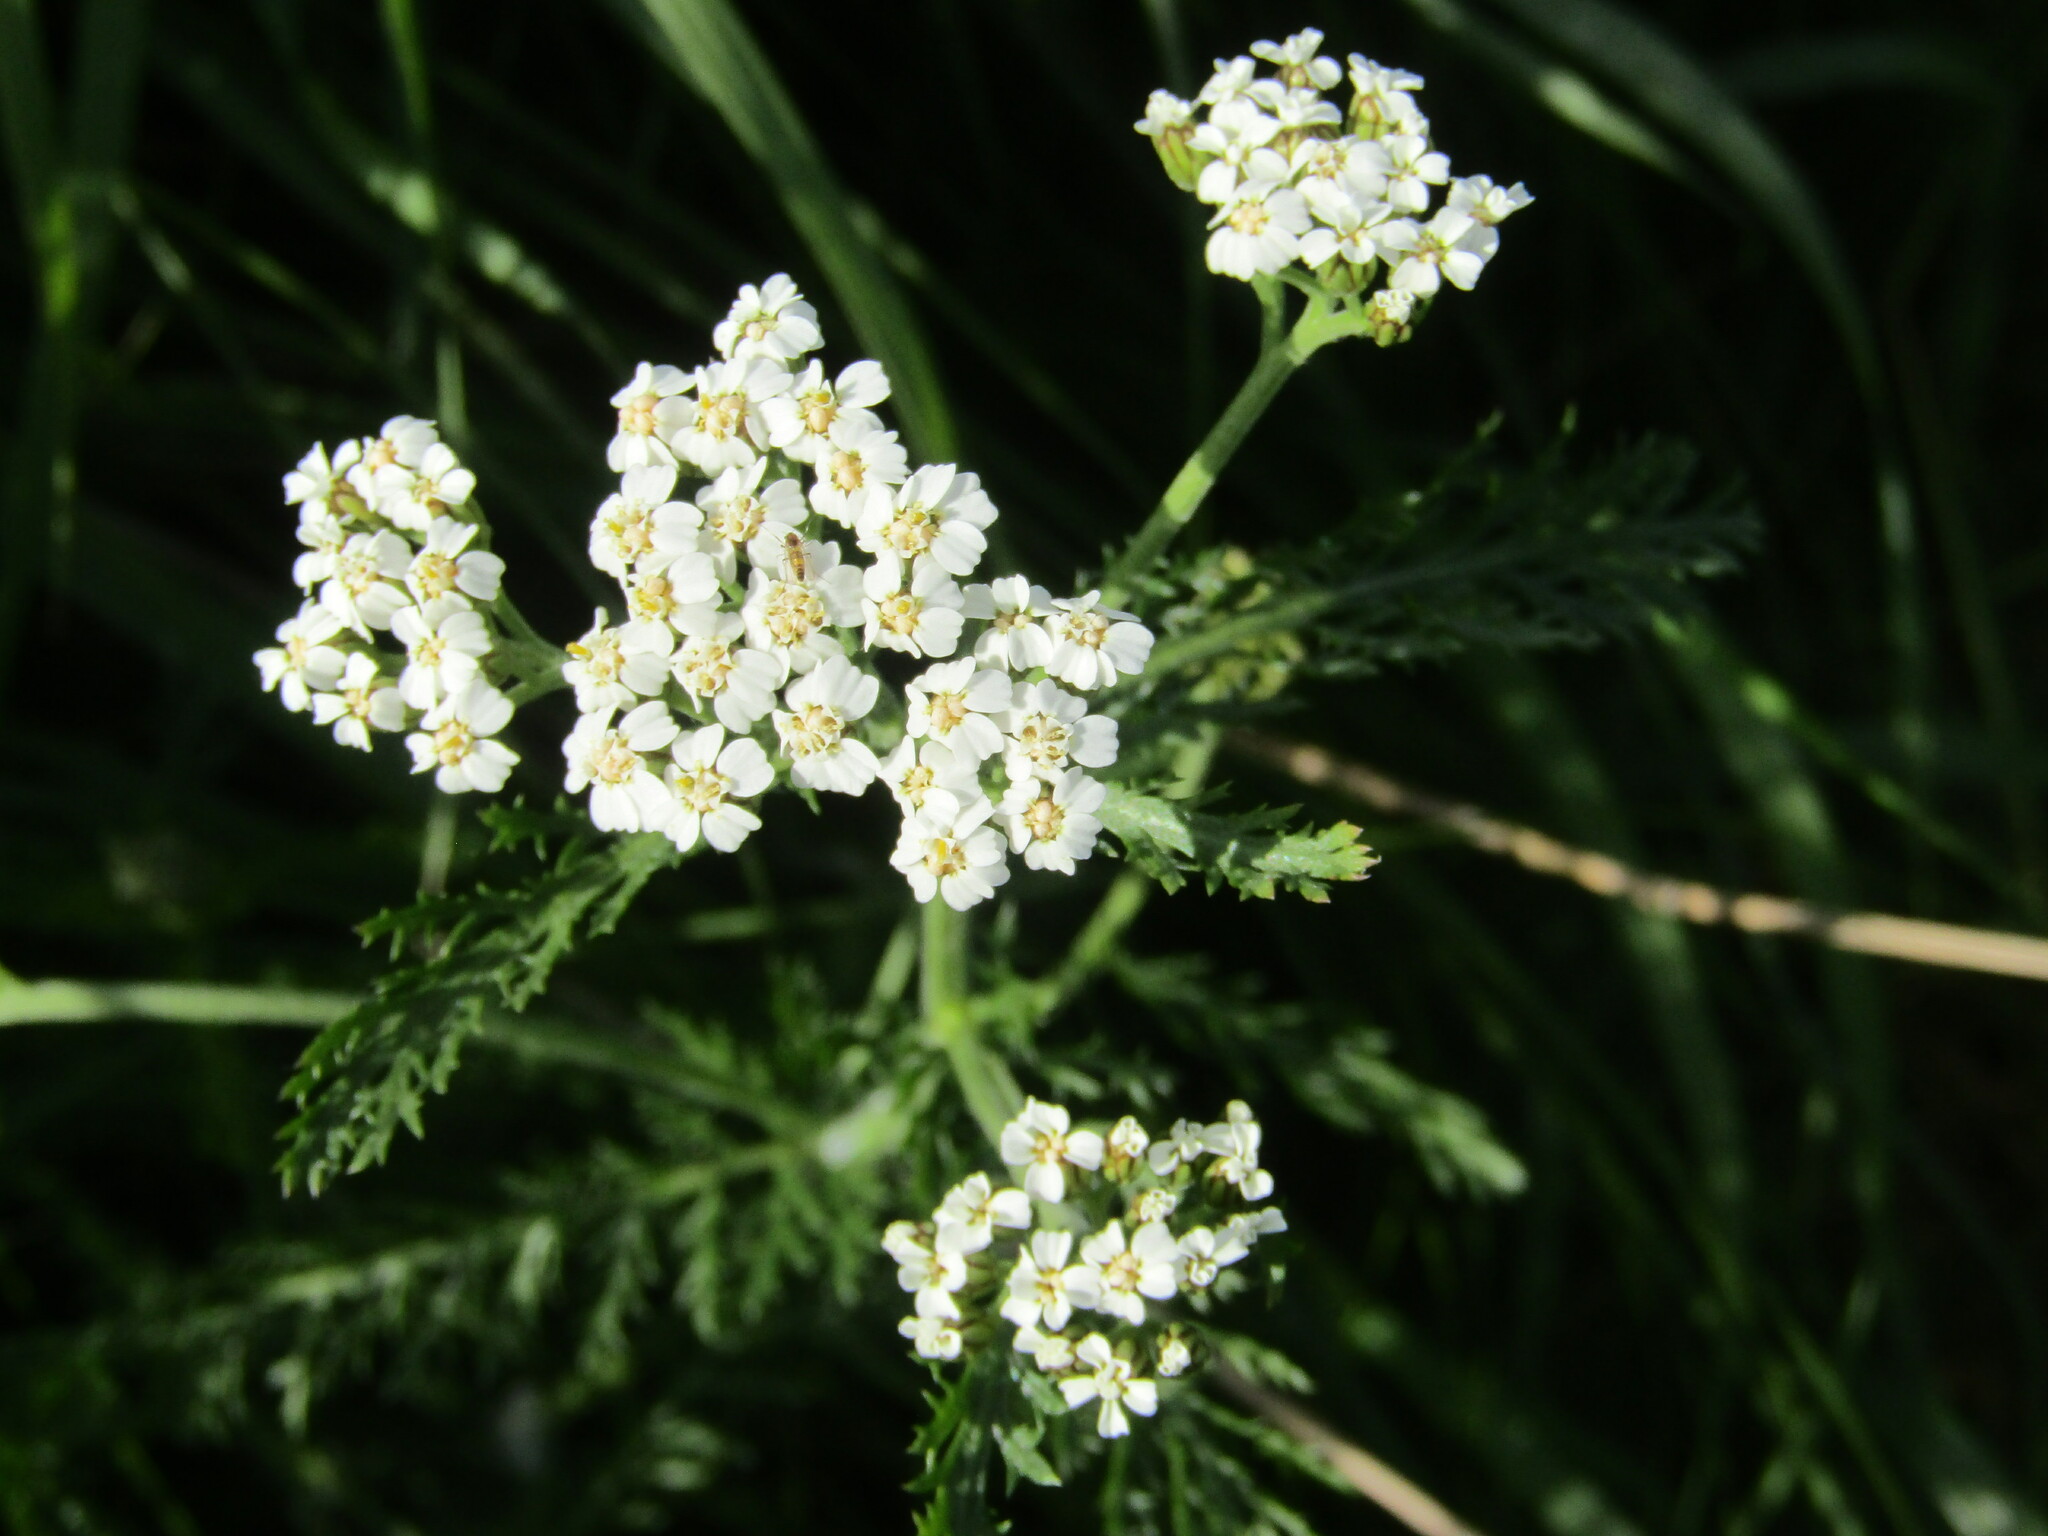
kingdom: Plantae
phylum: Tracheophyta
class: Magnoliopsida
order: Asterales
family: Asteraceae
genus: Achillea
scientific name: Achillea millefolium
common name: Yarrow
